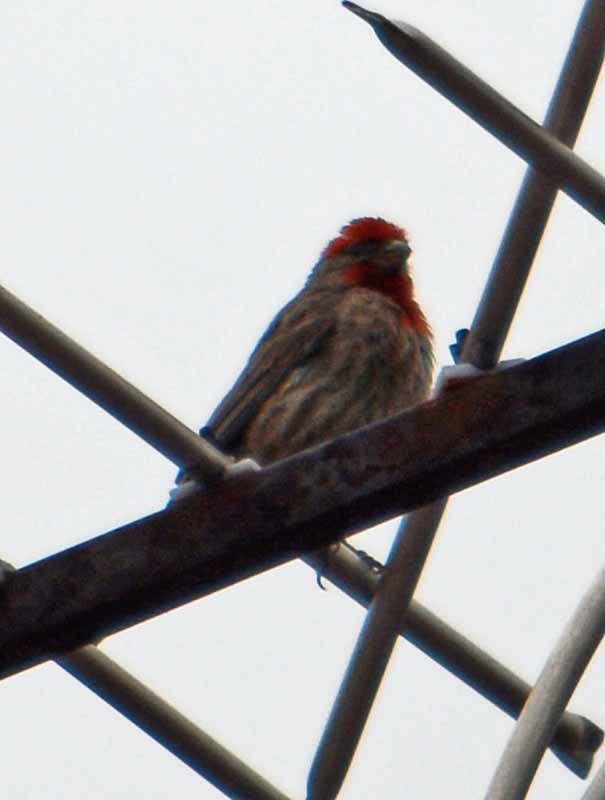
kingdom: Animalia
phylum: Chordata
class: Aves
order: Passeriformes
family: Fringillidae
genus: Haemorhous
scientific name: Haemorhous mexicanus
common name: House finch
